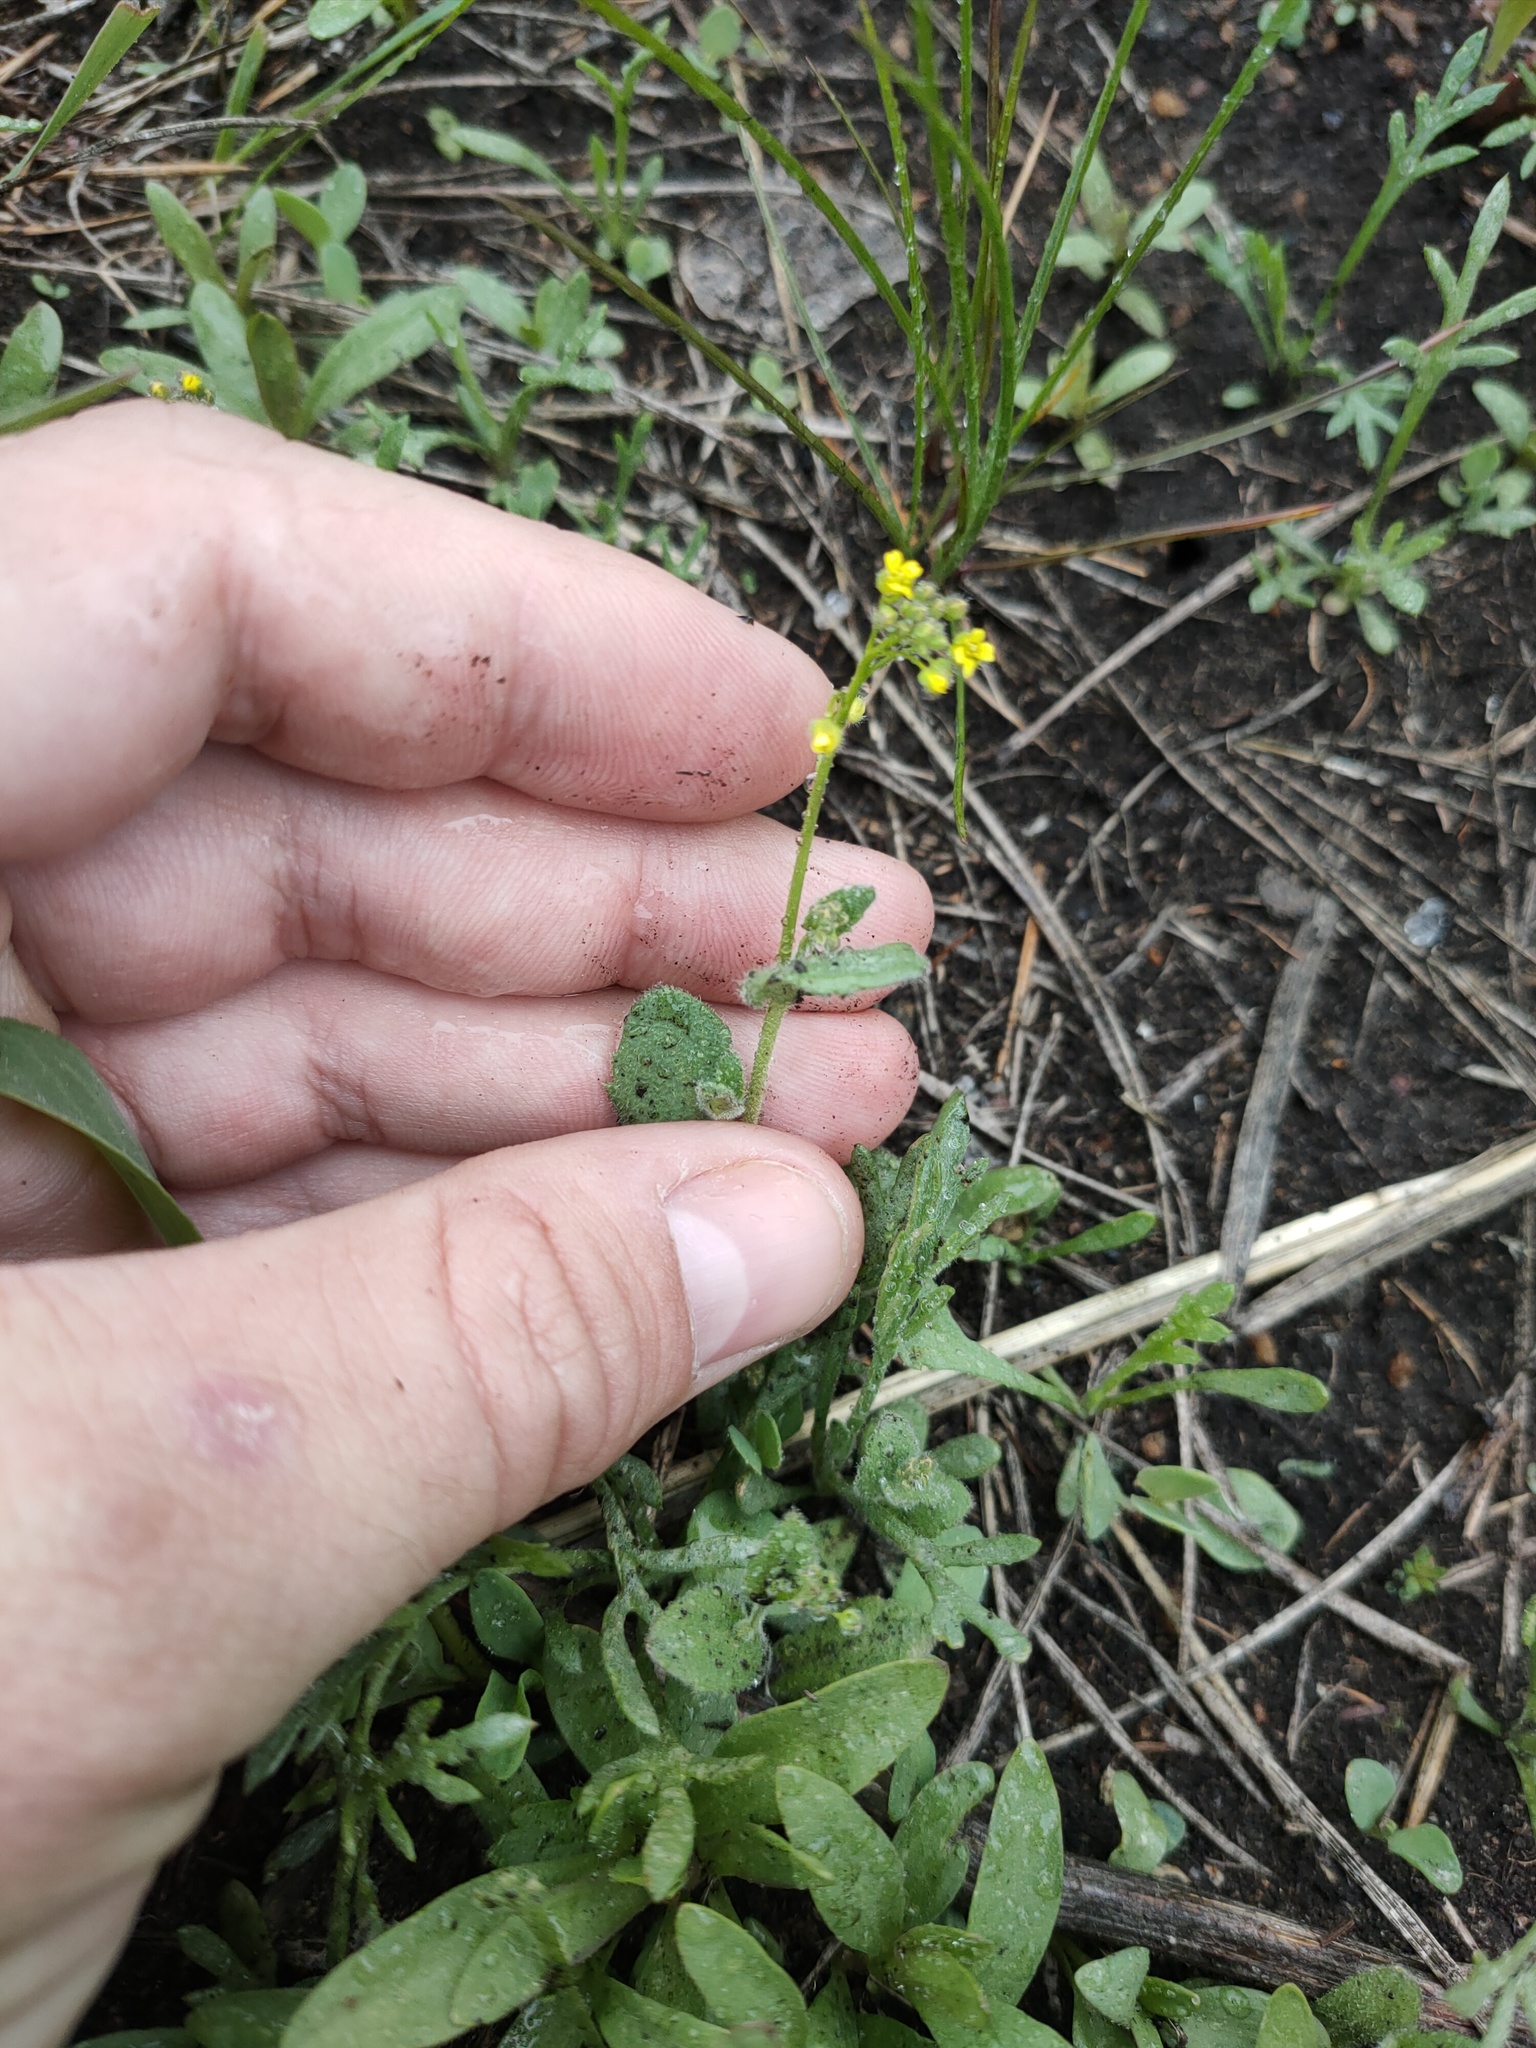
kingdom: Plantae
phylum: Tracheophyta
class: Magnoliopsida
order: Brassicales
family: Brassicaceae
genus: Draba
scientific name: Draba nemorosa
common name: Wood whitlow-grass
